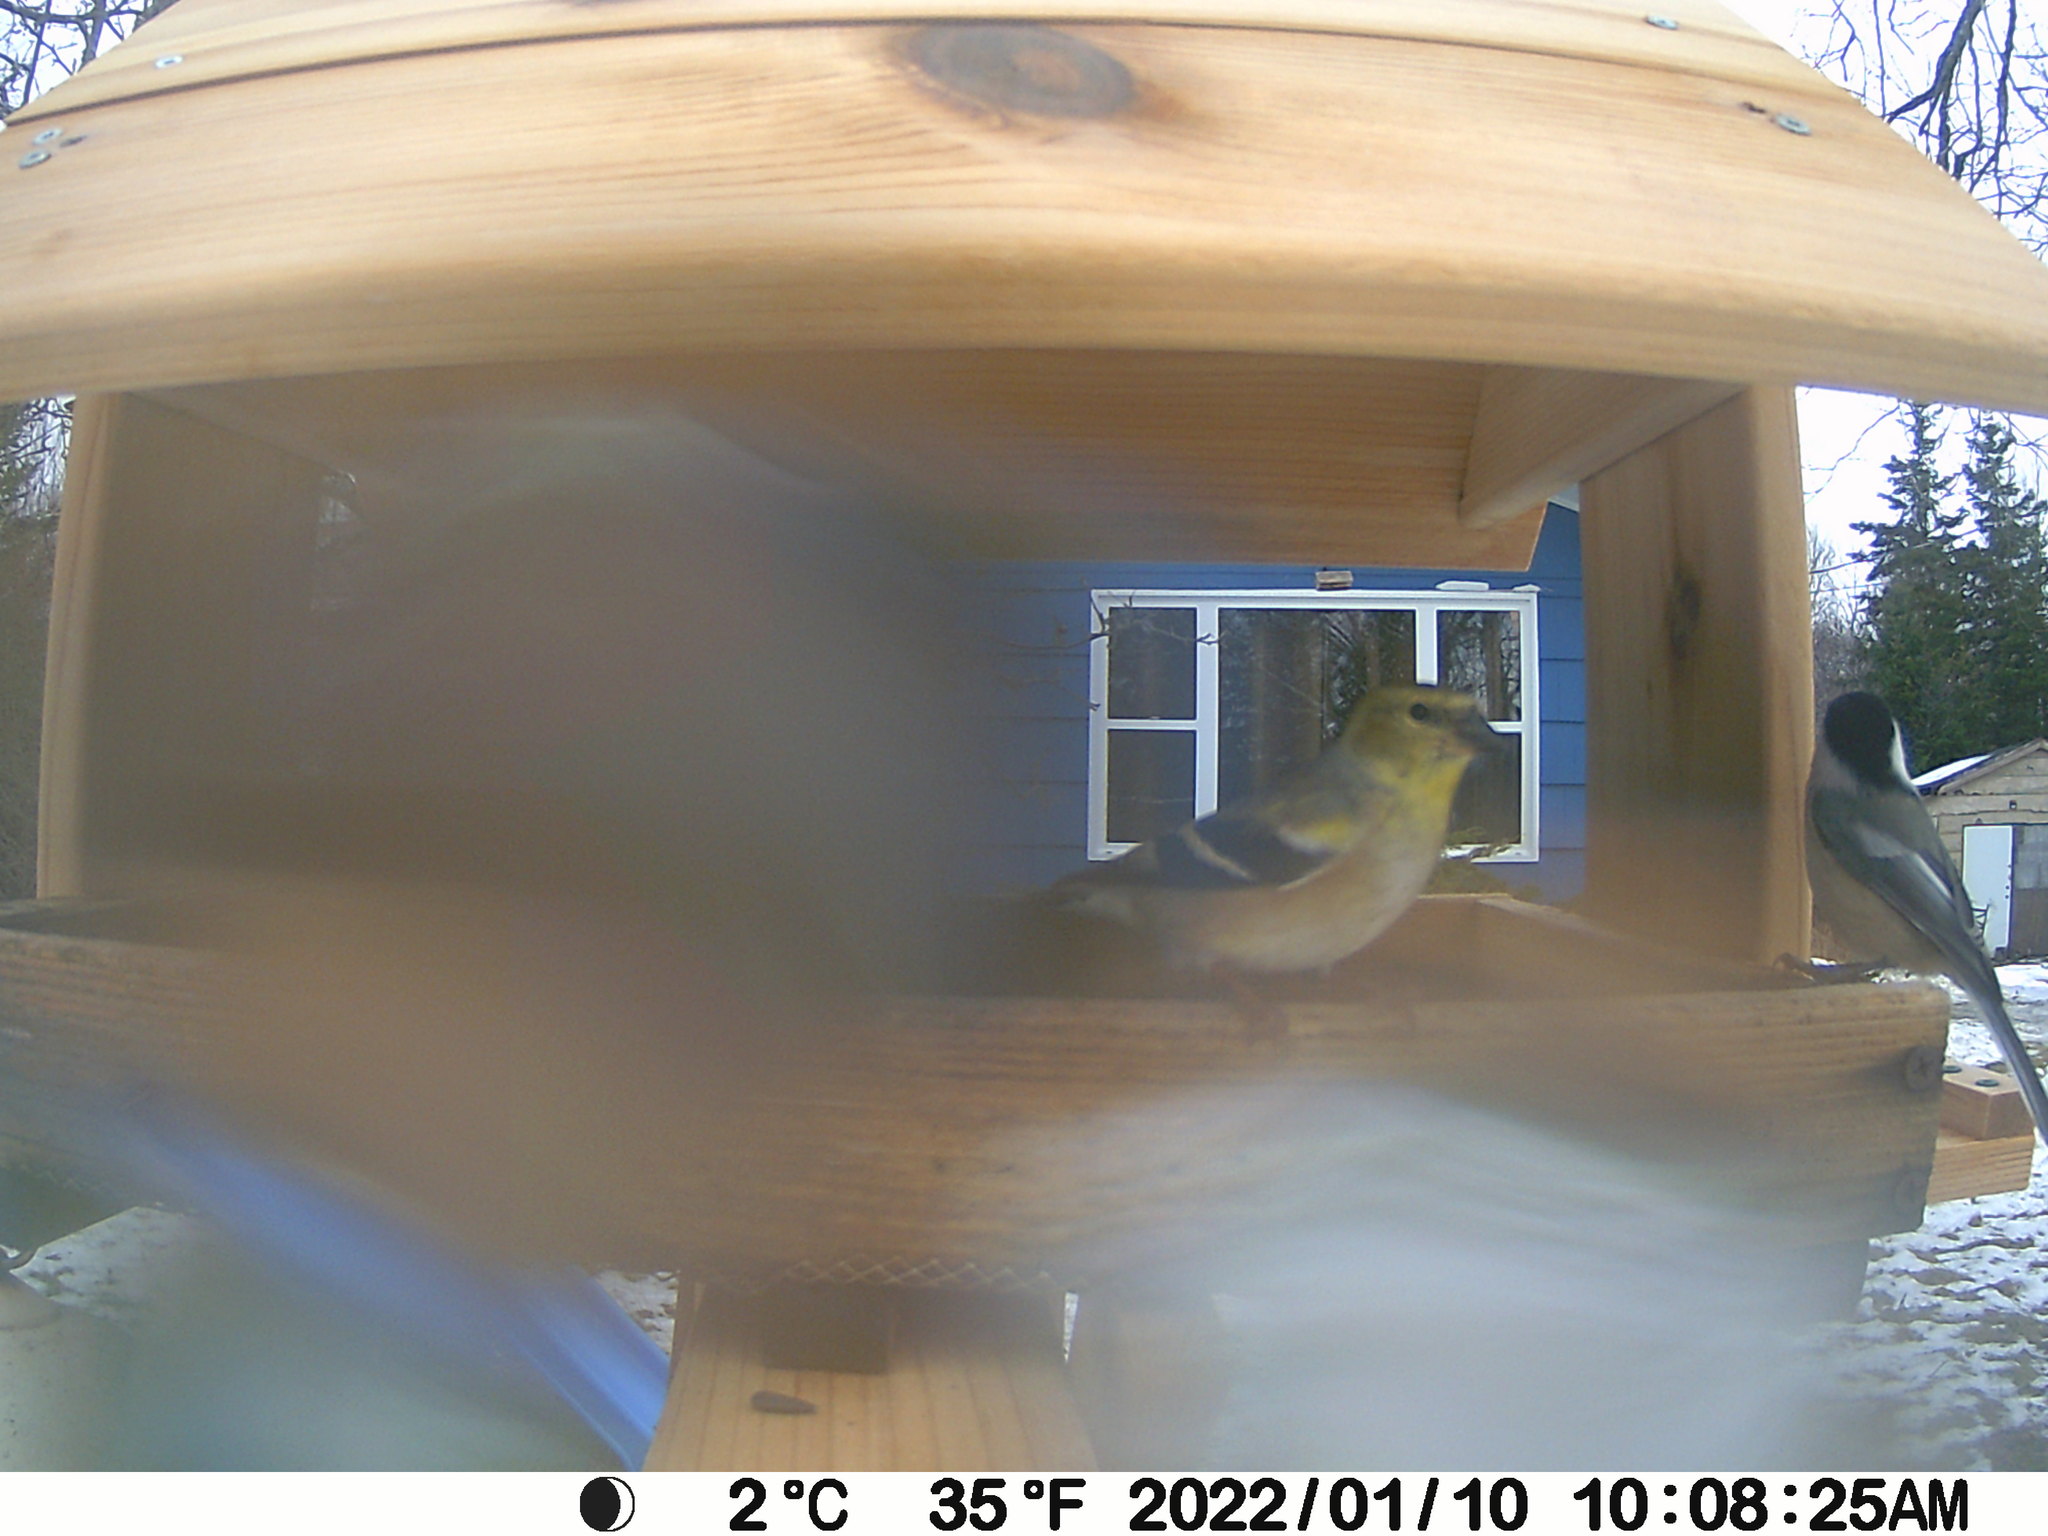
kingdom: Animalia
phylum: Chordata
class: Aves
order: Passeriformes
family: Fringillidae
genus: Spinus
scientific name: Spinus tristis
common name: American goldfinch
